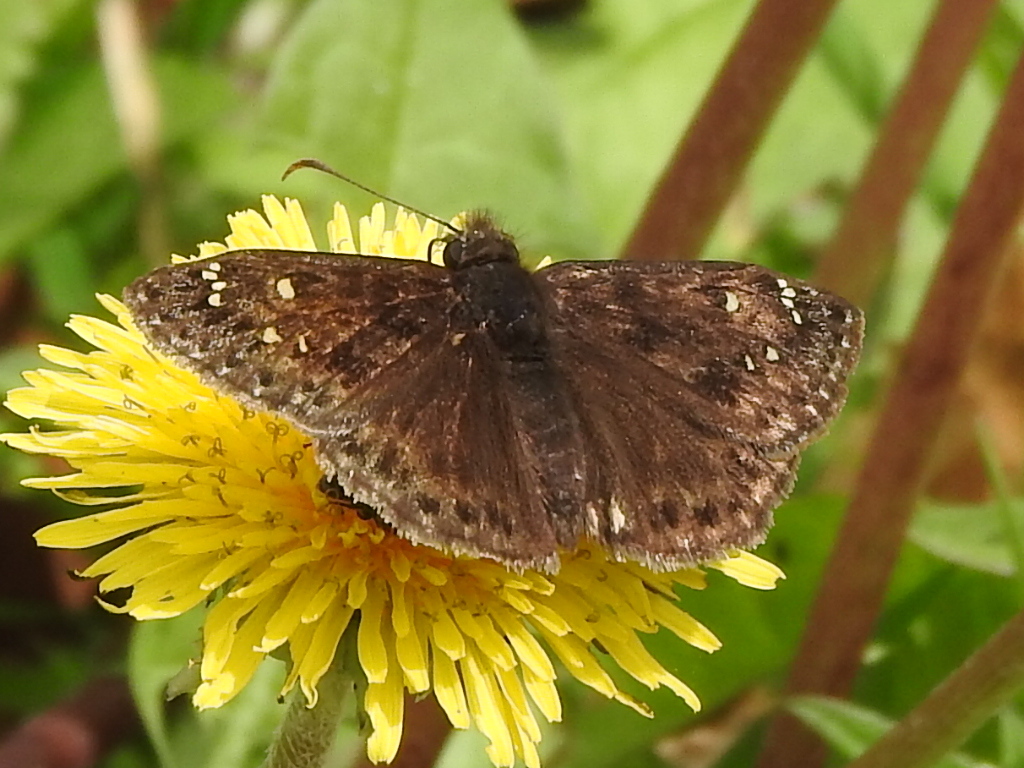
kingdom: Animalia
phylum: Arthropoda
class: Insecta
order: Lepidoptera
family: Hesperiidae
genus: Erynnis
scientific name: Erynnis juvenalis
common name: Juvenal's duskywing
